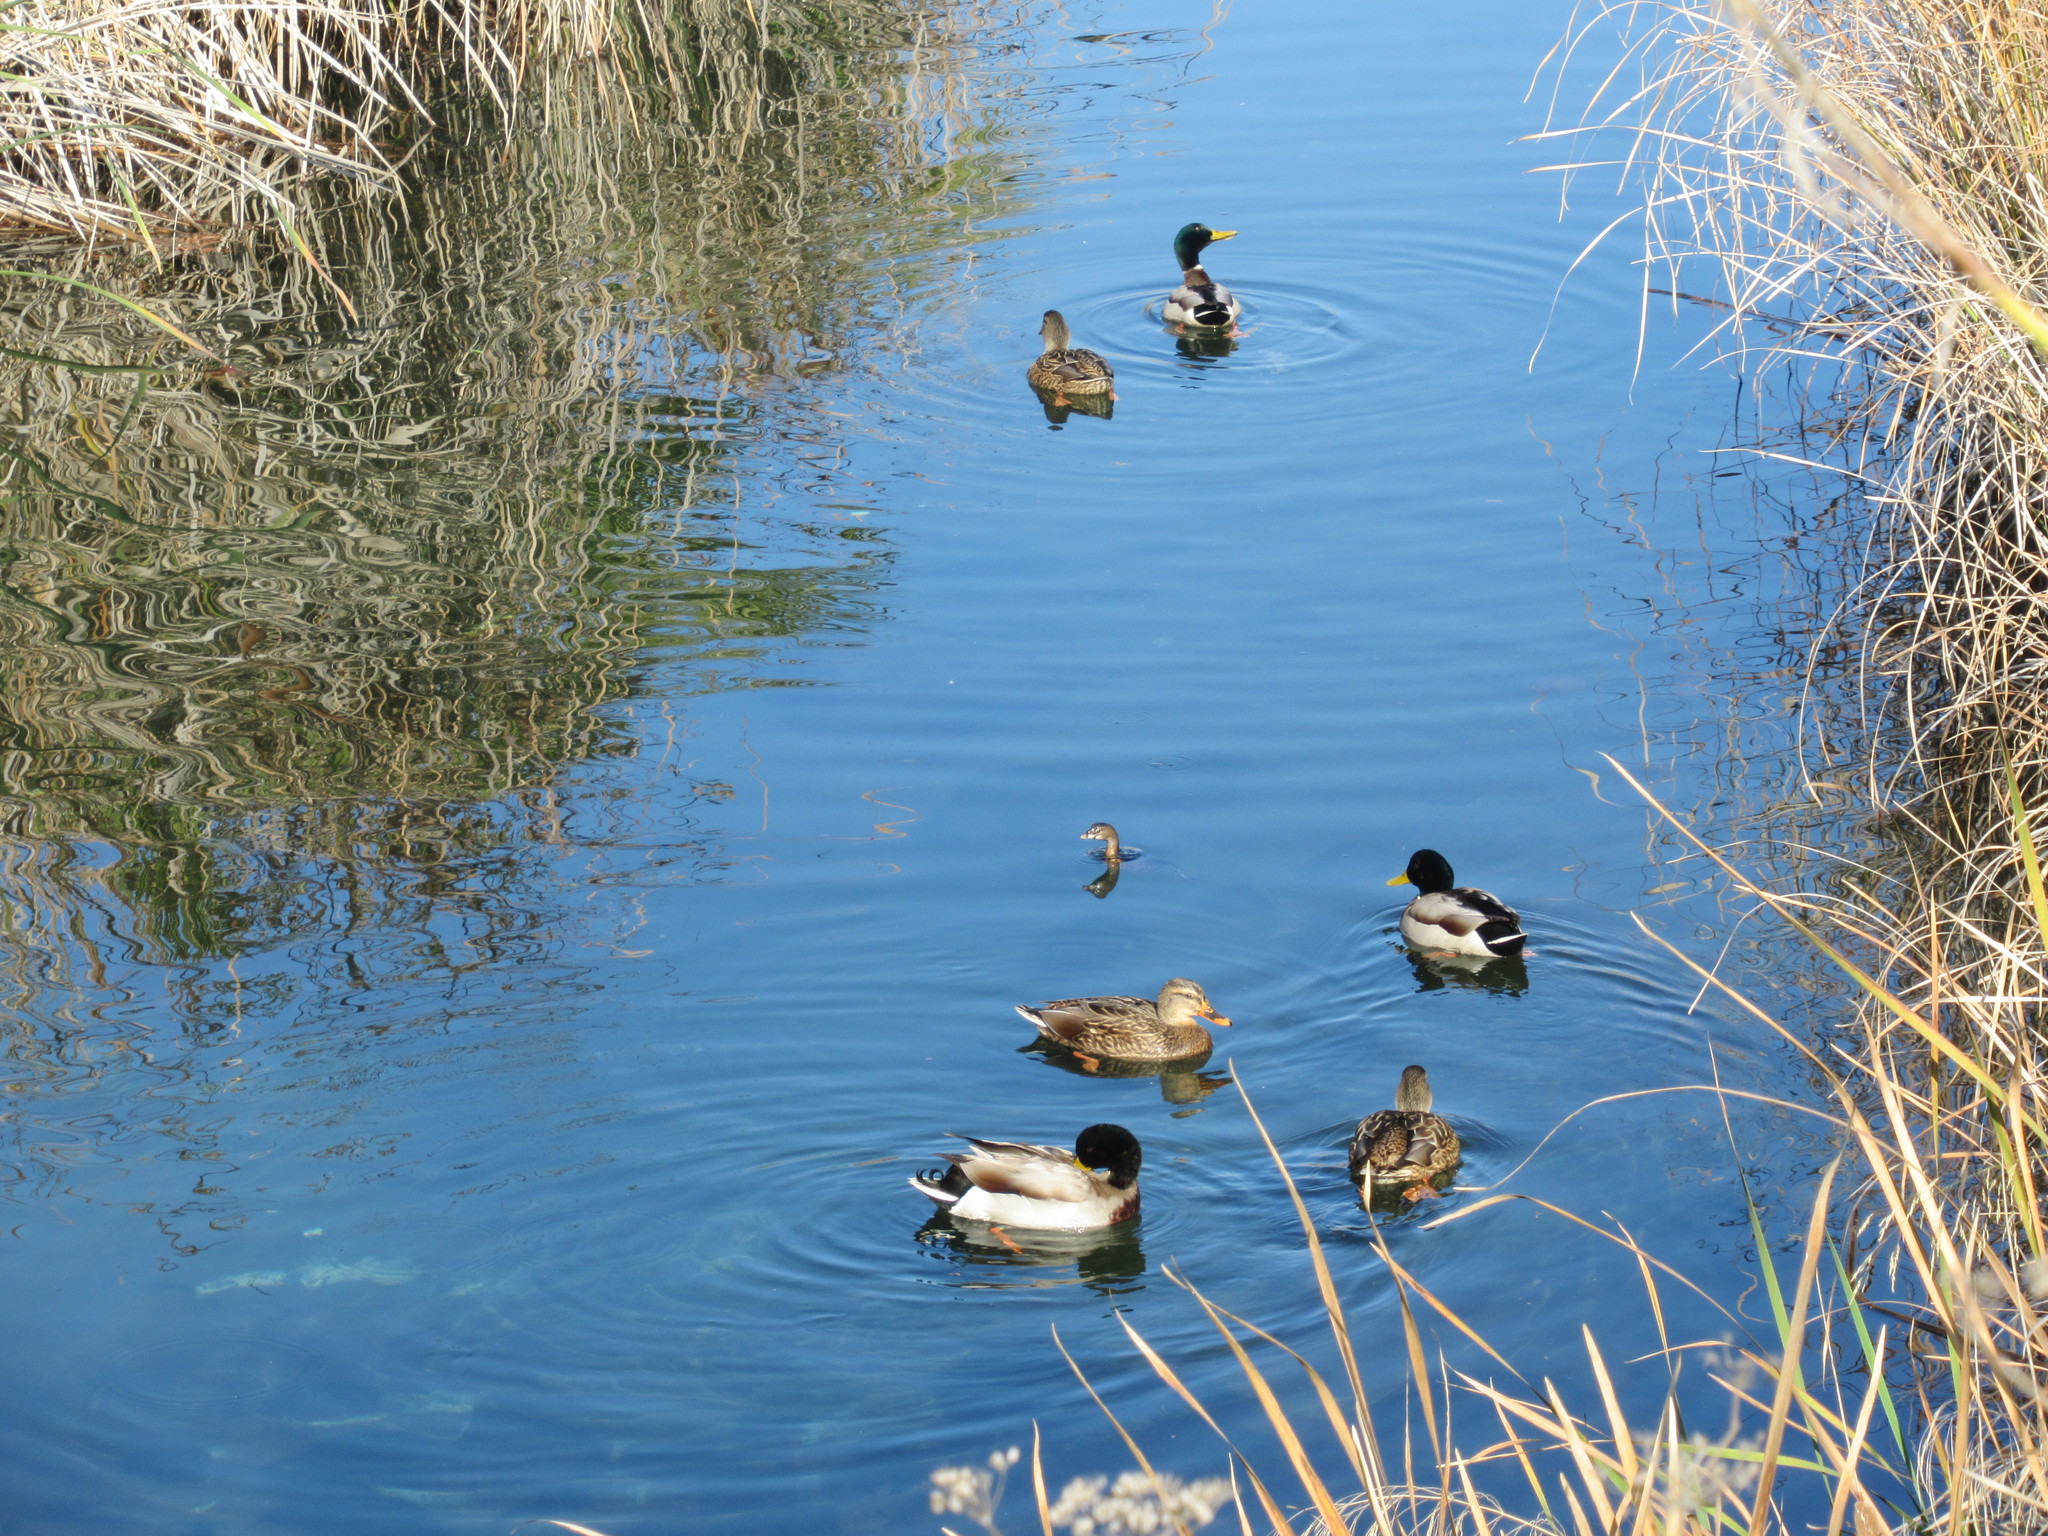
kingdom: Animalia
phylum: Chordata
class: Aves
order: Anseriformes
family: Anatidae
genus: Anas
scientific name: Anas platyrhynchos
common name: Mallard
